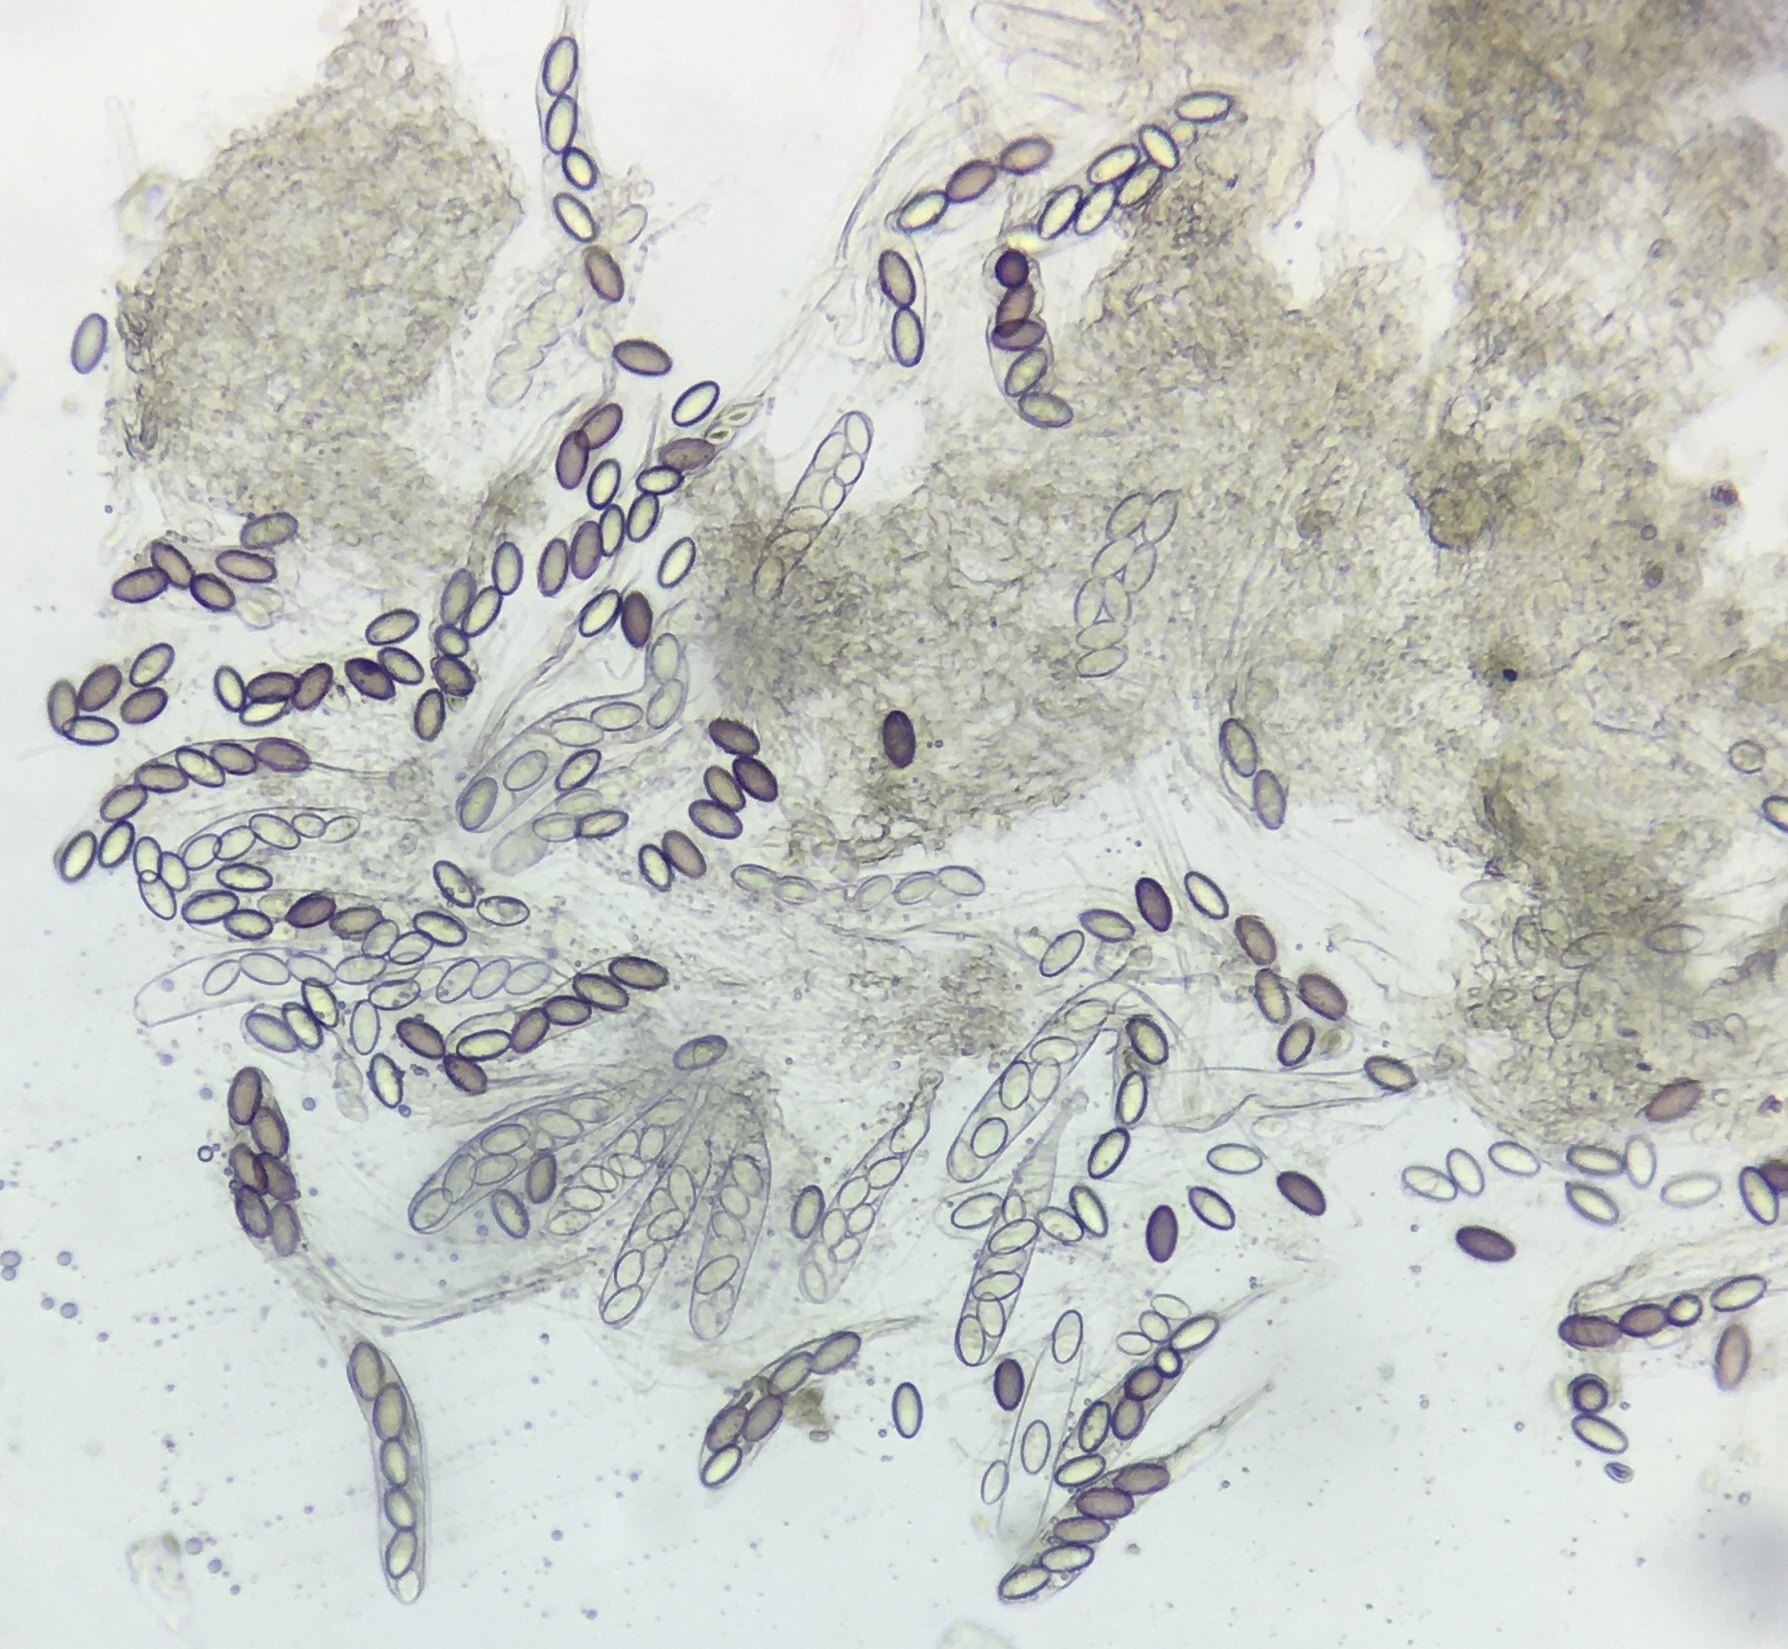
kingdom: Fungi
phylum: Ascomycota
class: Pezizomycetes
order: Pezizales
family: Ascobolaceae
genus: Ascobolus
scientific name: Ascobolus albidus
